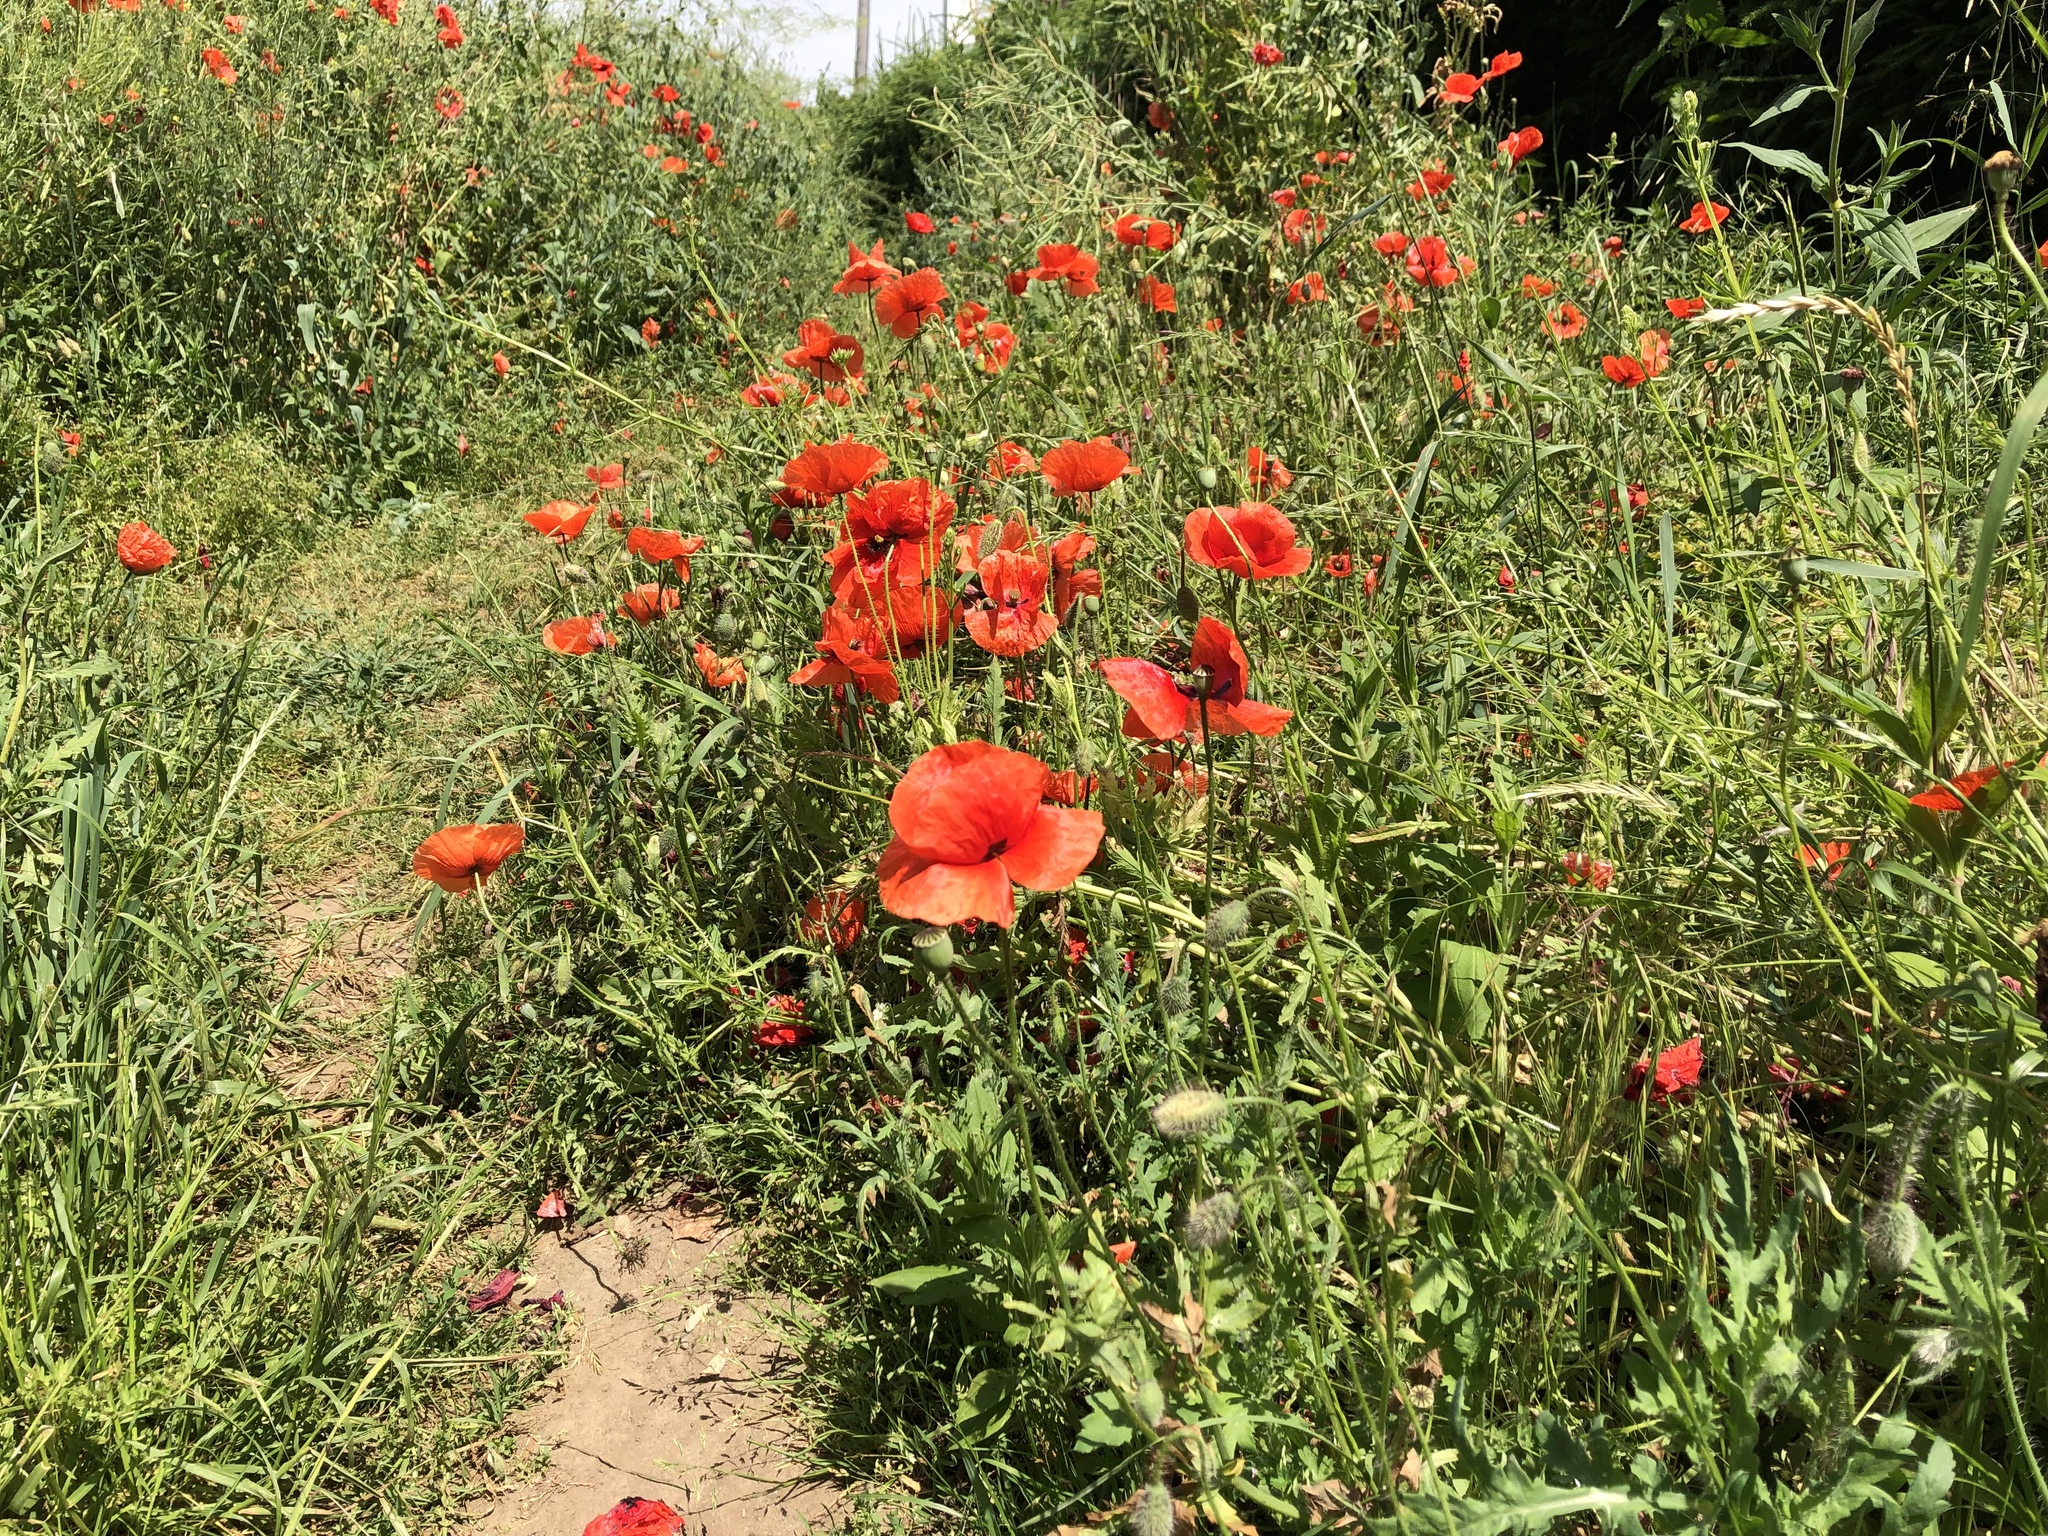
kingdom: Plantae
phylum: Tracheophyta
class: Magnoliopsida
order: Ranunculales
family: Papaveraceae
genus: Papaver
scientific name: Papaver rhoeas
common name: Corn poppy
